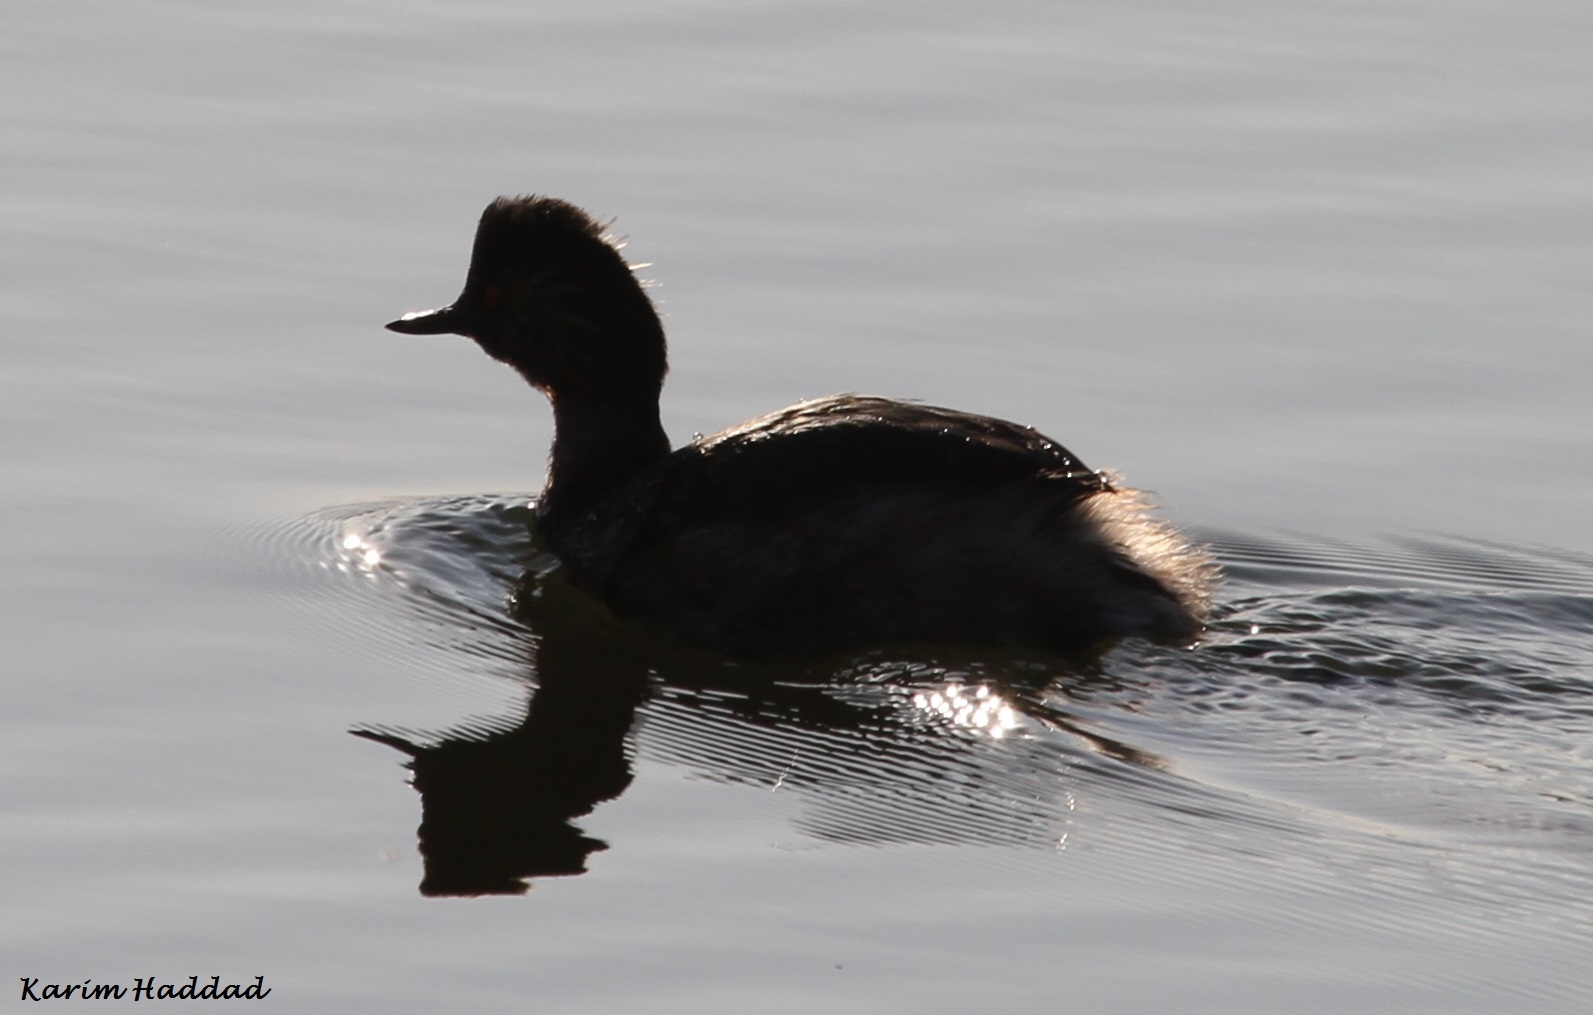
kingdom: Animalia
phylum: Chordata
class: Aves
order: Podicipediformes
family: Podicipedidae
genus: Podiceps
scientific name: Podiceps nigricollis
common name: Black-necked grebe
